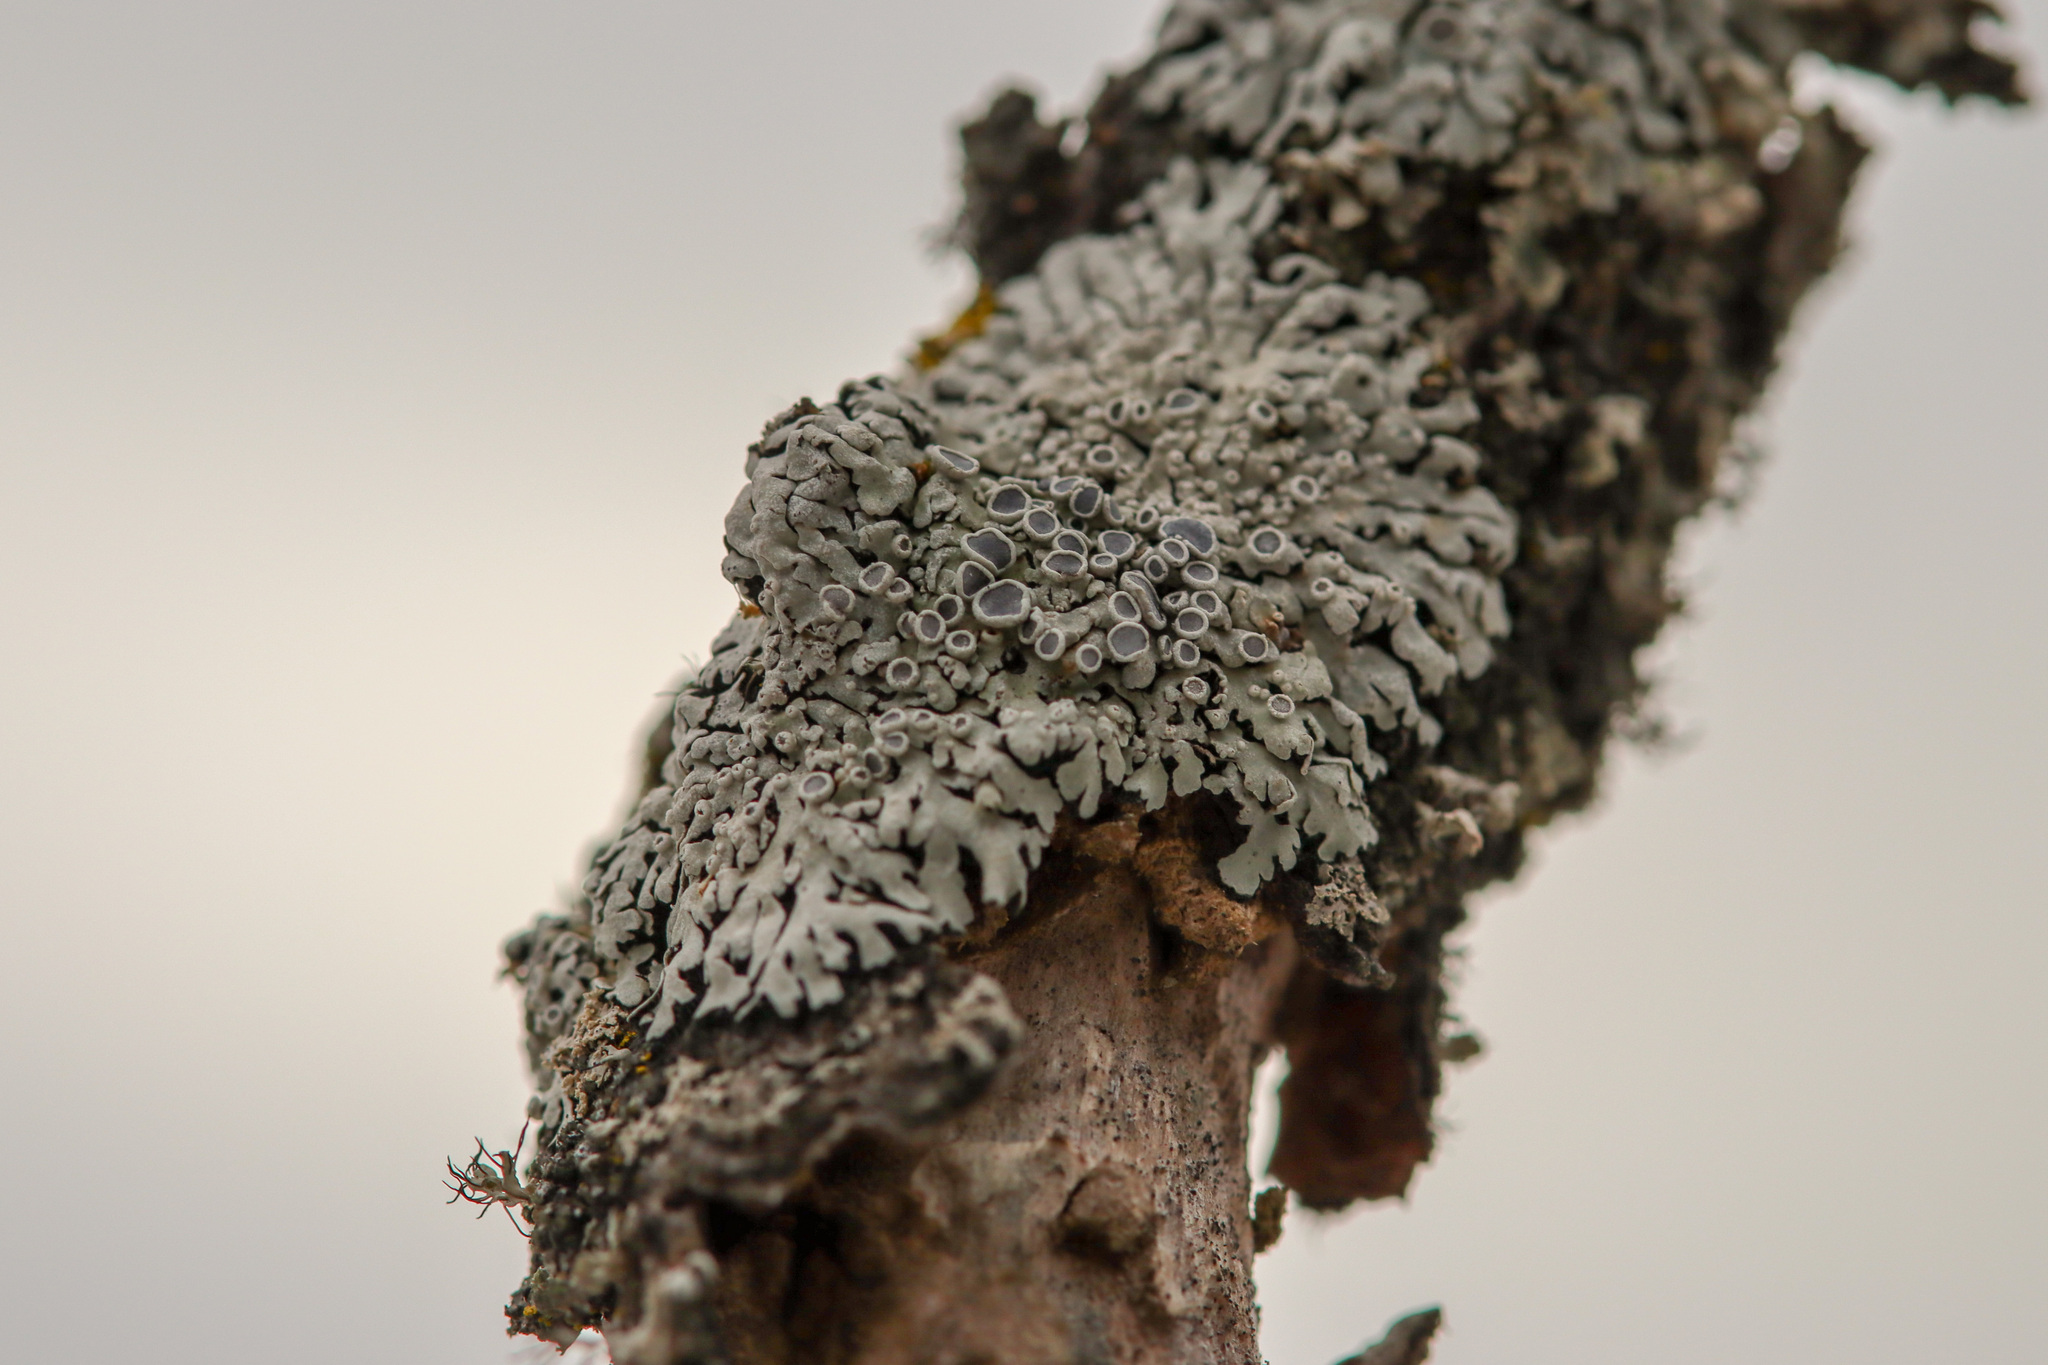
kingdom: Fungi
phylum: Ascomycota
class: Lecanoromycetes
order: Caliciales
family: Physciaceae
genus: Physcia
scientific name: Physcia aipolia
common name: Hoary rosette lichen
